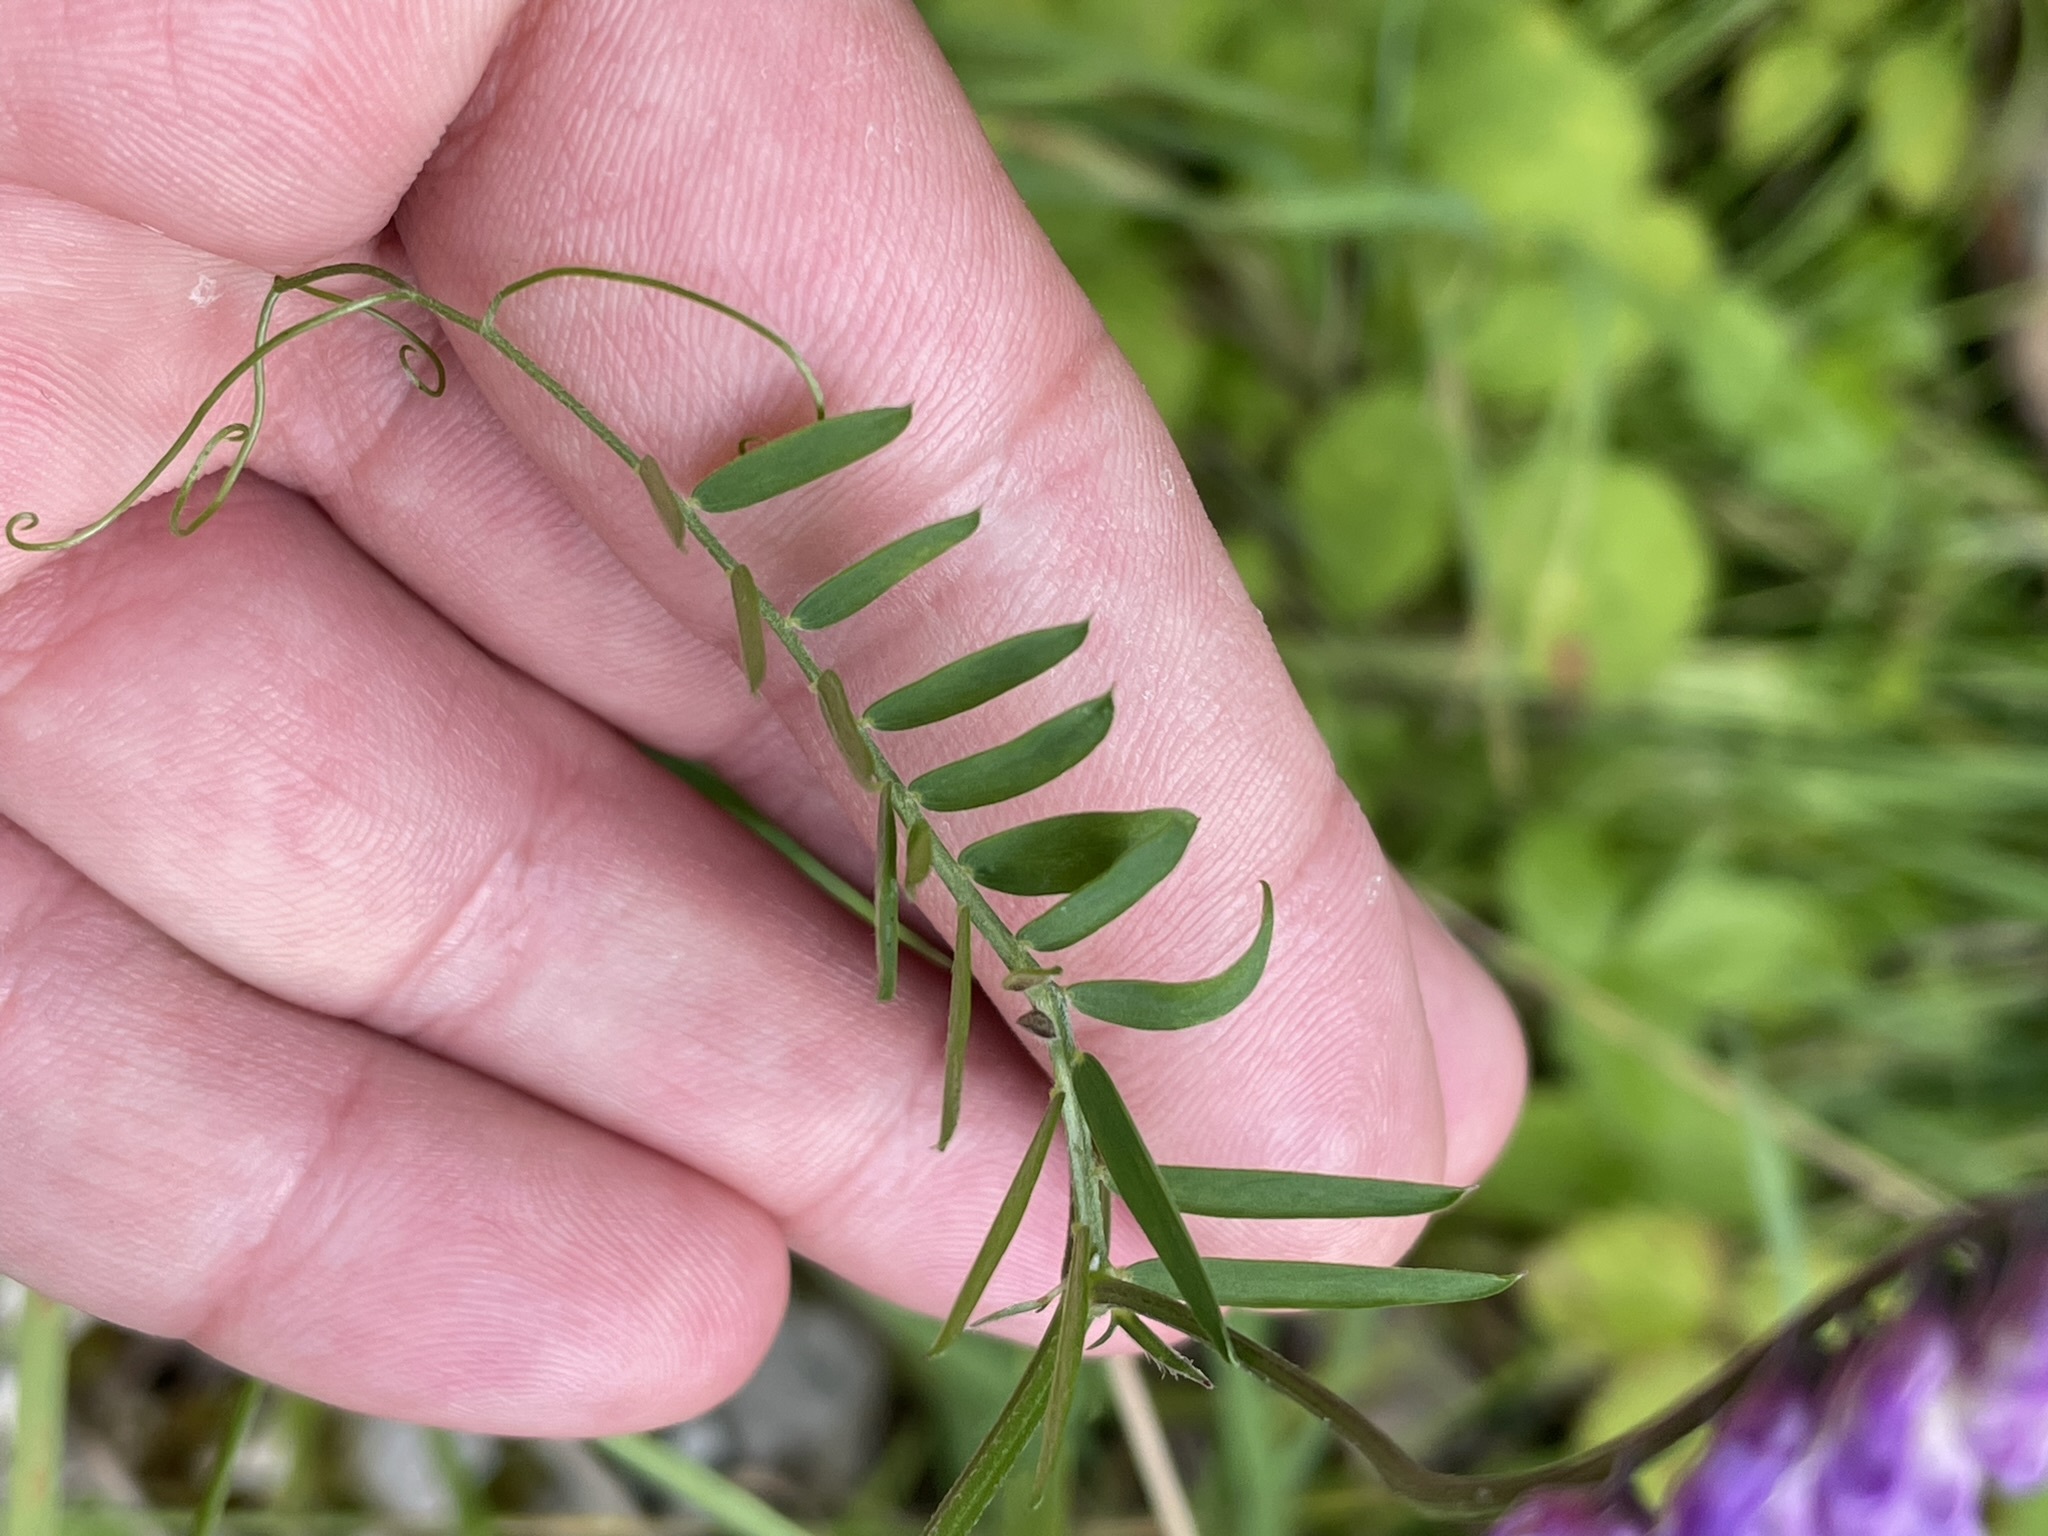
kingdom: Plantae
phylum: Tracheophyta
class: Magnoliopsida
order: Fabales
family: Fabaceae
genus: Vicia
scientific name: Vicia cracca
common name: Bird vetch
